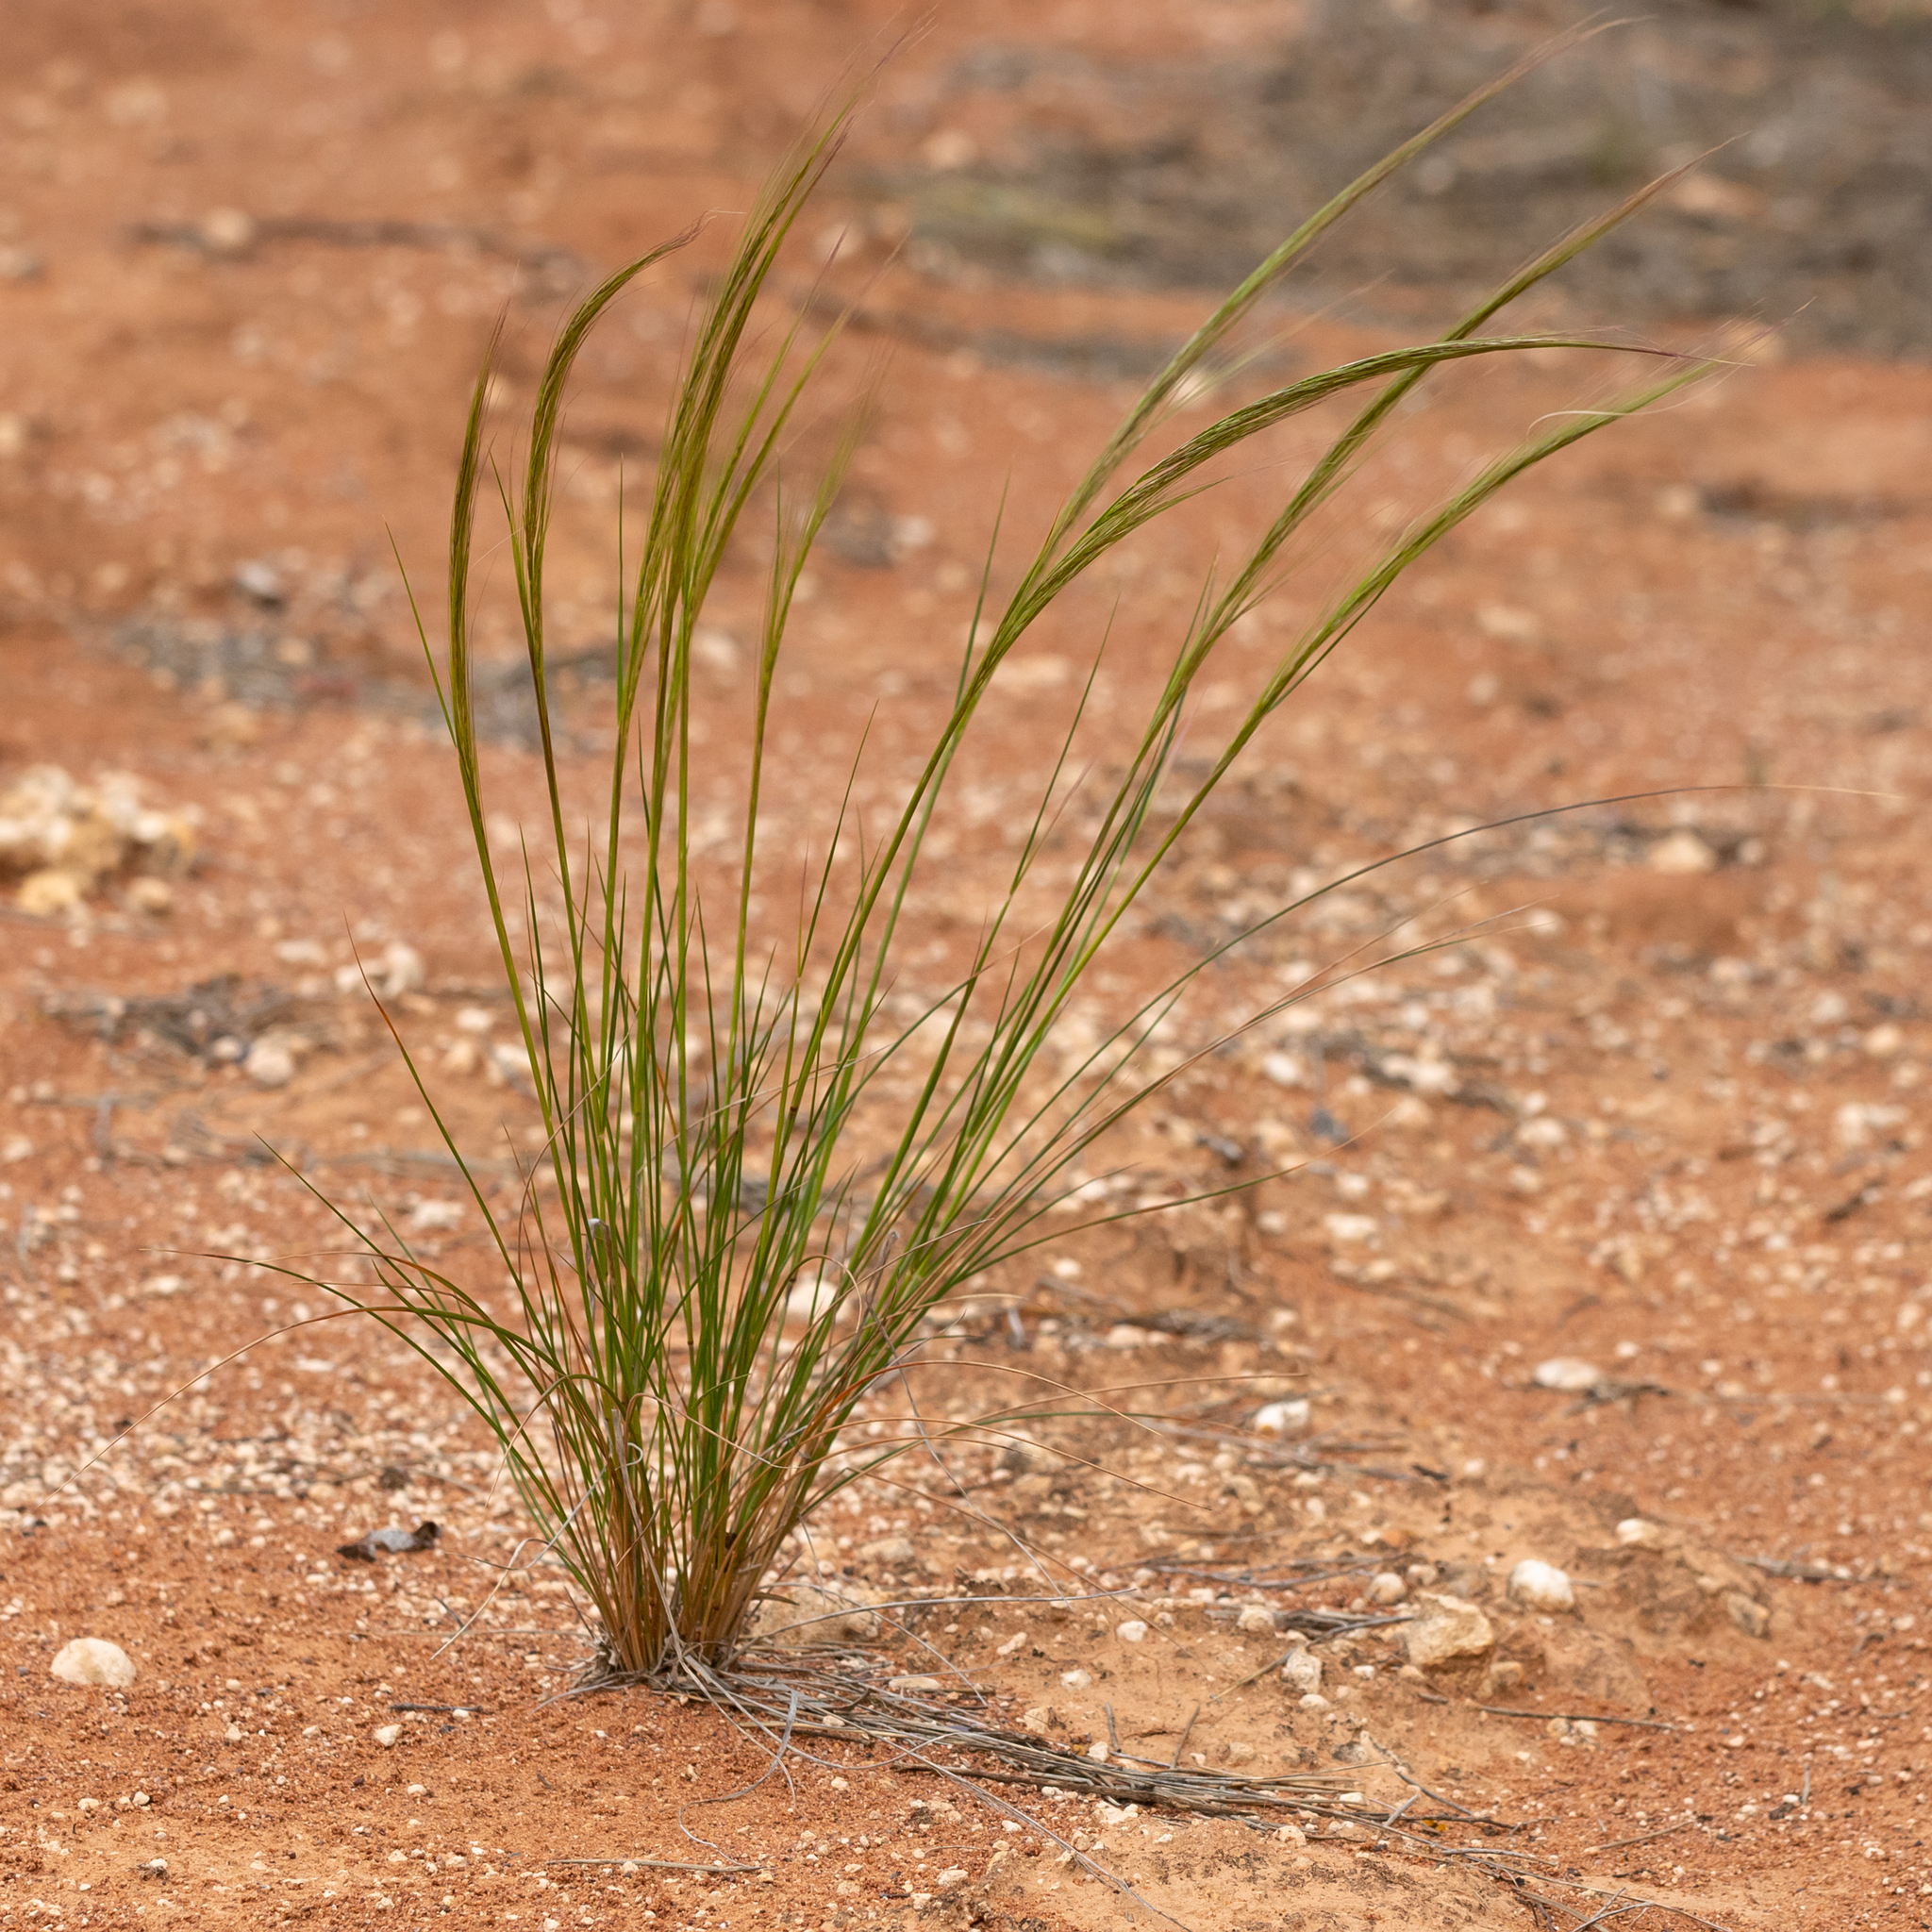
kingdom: Plantae
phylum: Tracheophyta
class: Liliopsida
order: Poales
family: Poaceae
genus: Austrostipa
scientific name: Austrostipa nitida
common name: Balcarra grass
